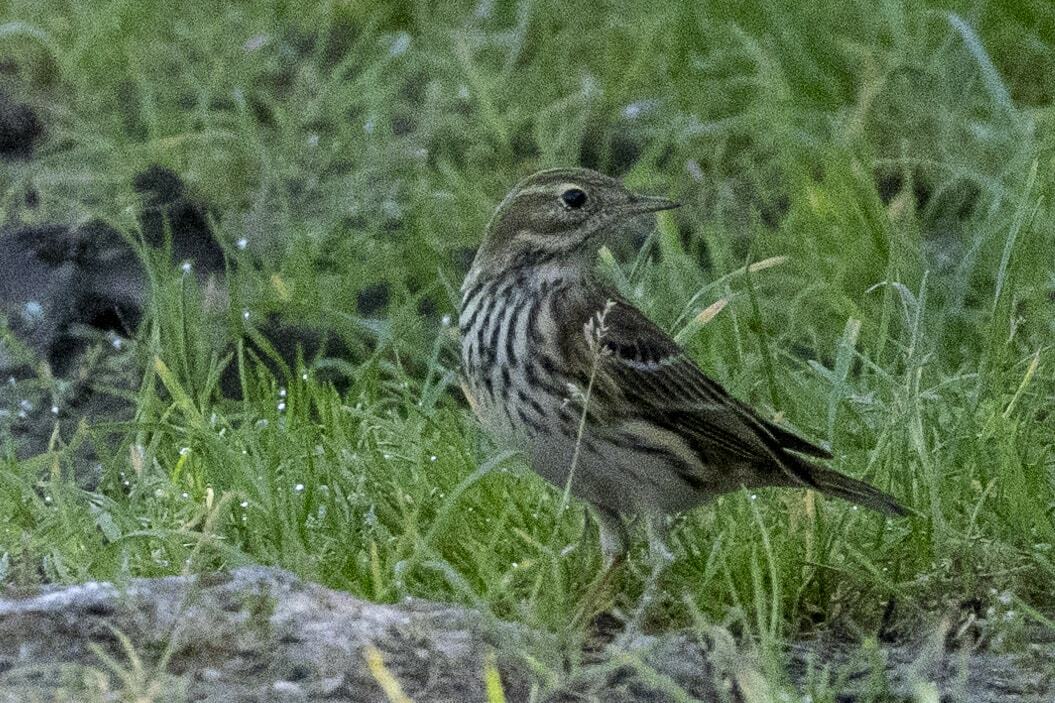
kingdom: Animalia
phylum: Chordata
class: Aves
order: Passeriformes
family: Motacillidae
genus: Anthus
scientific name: Anthus pratensis
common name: Meadow pipit
